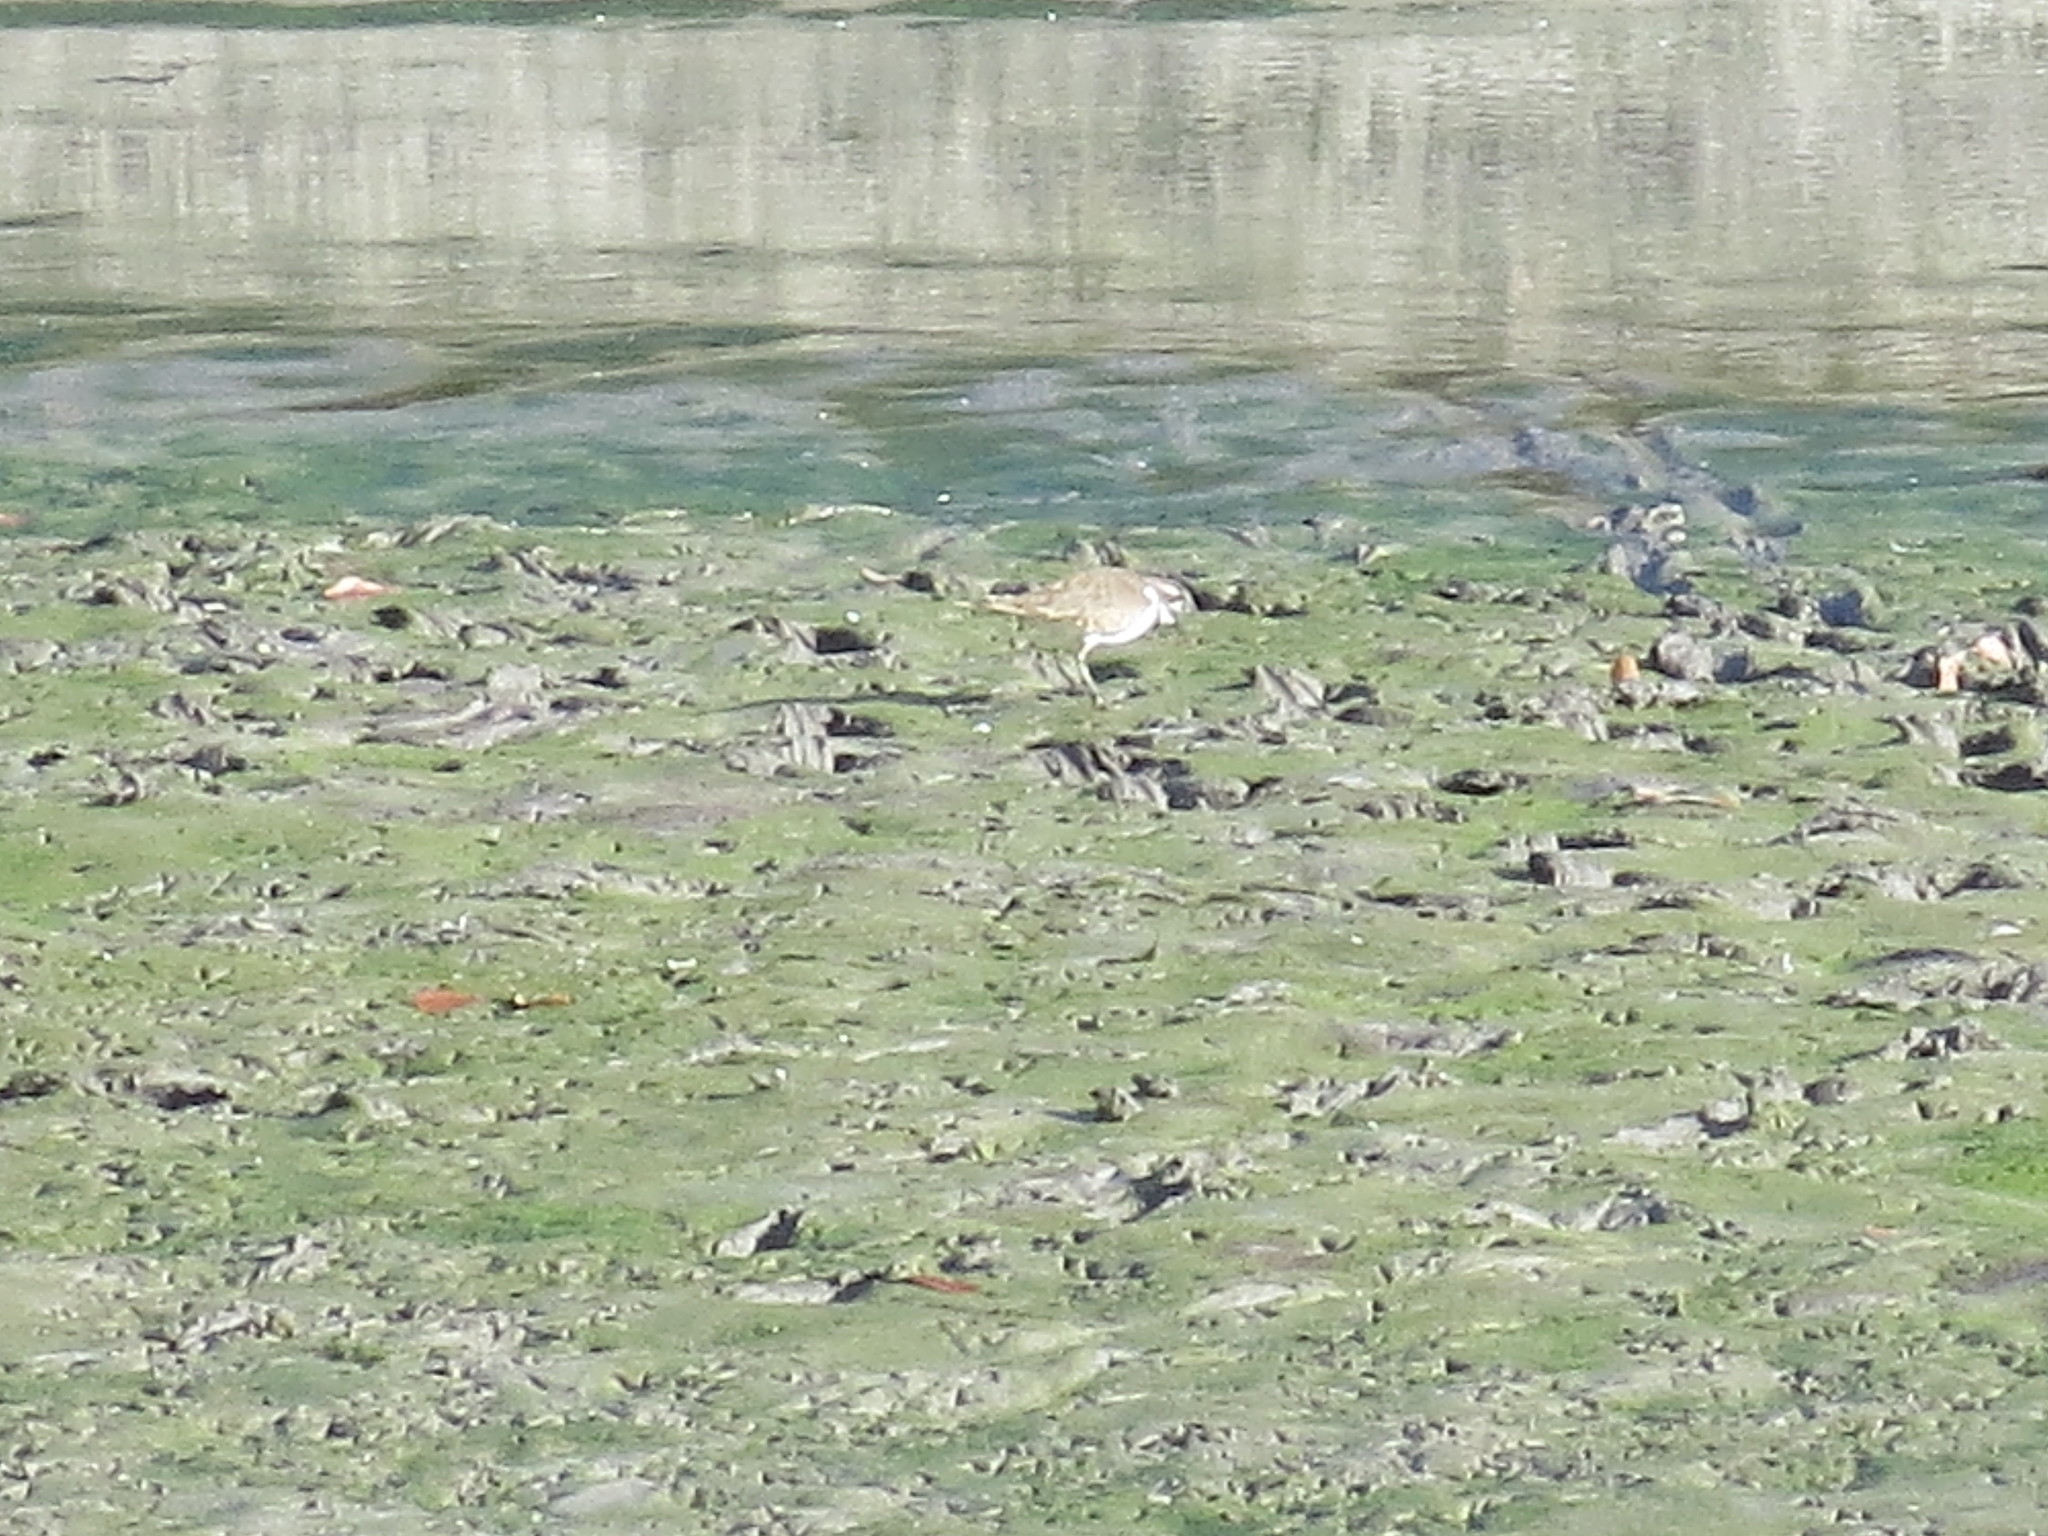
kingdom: Animalia
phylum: Chordata
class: Aves
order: Charadriiformes
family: Charadriidae
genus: Charadrius
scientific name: Charadrius vociferus
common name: Killdeer
